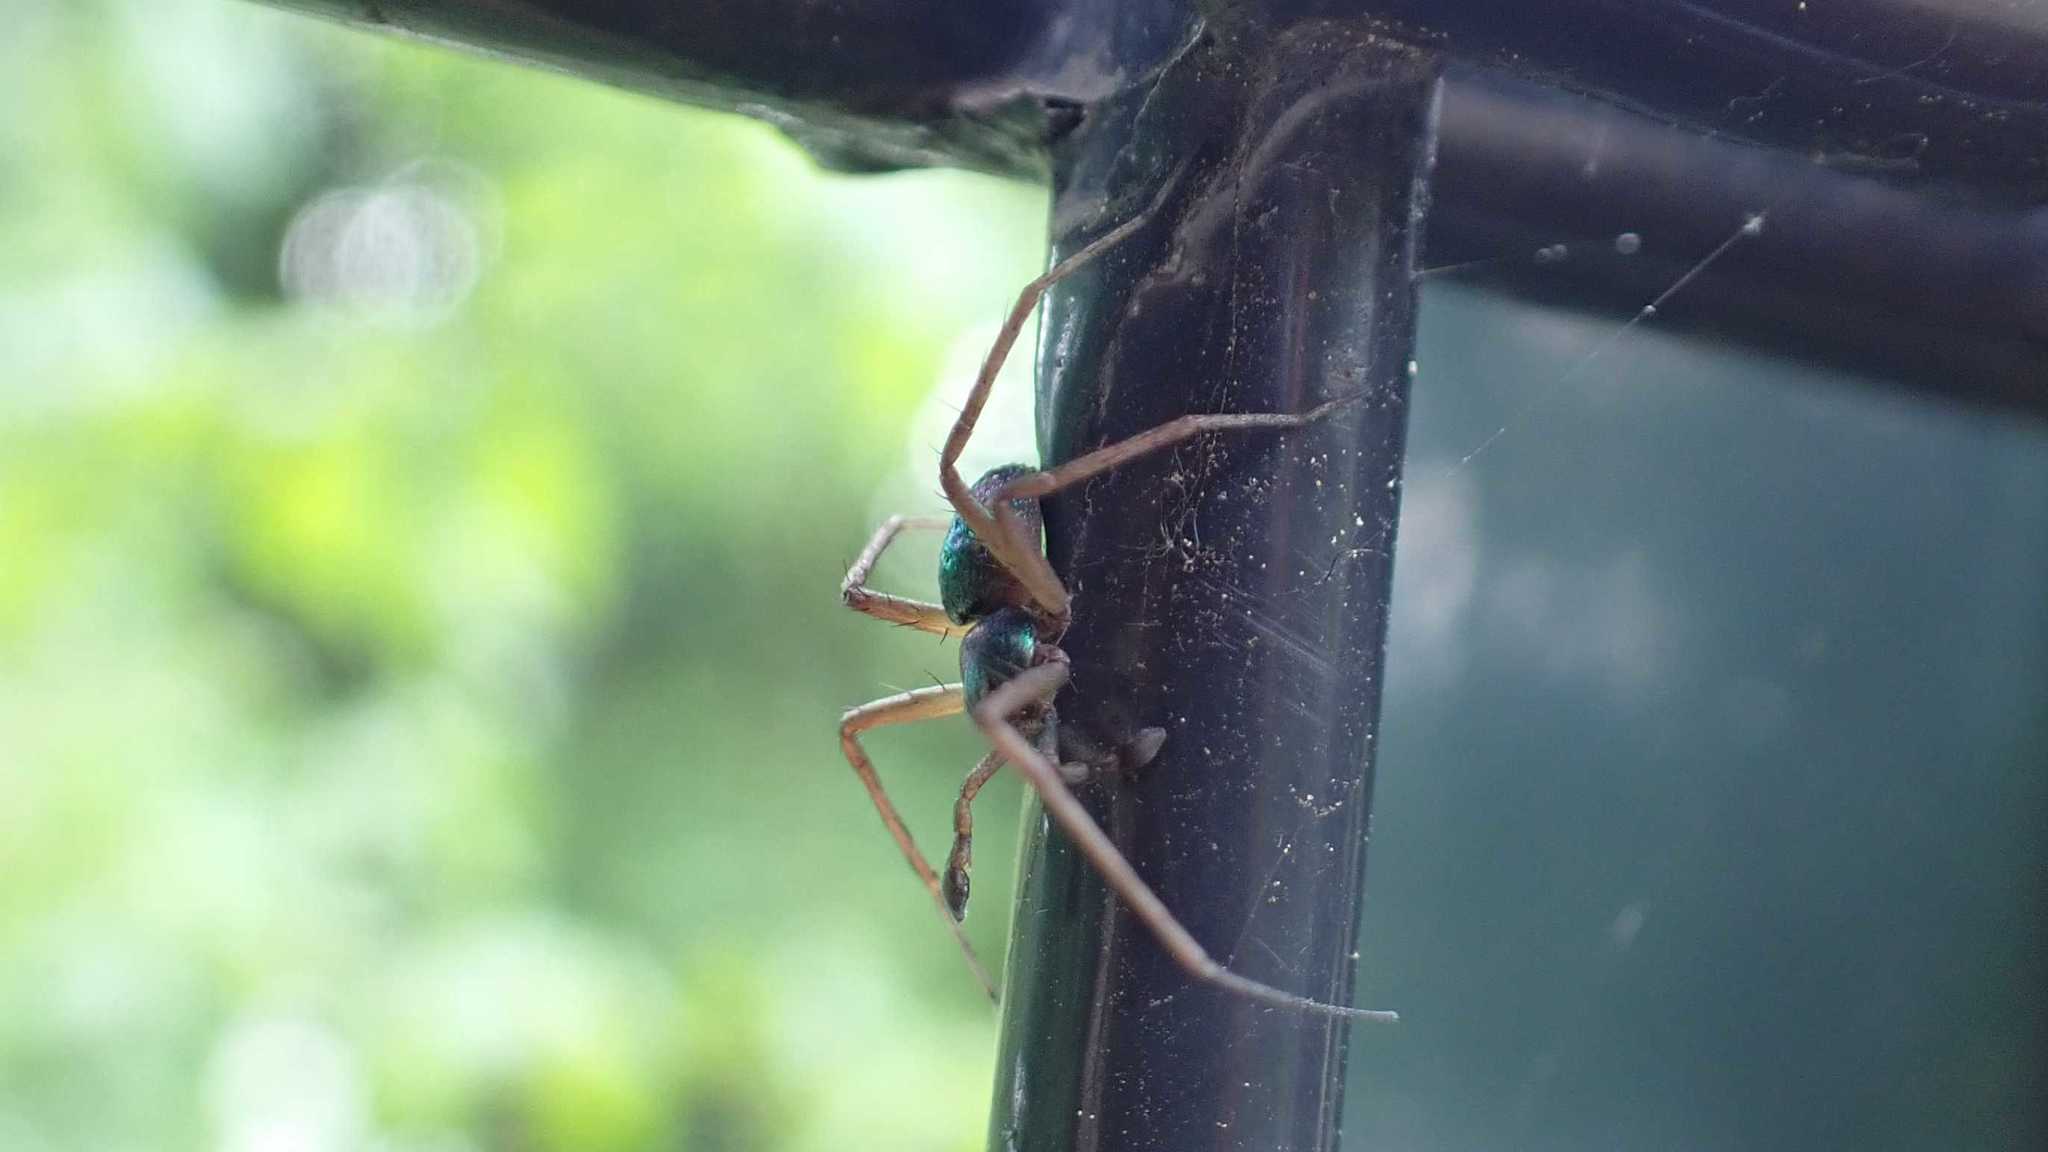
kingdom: Animalia
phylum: Arthropoda
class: Arachnida
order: Araneae
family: Philodromidae
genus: Philodromus
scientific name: Philodromus
